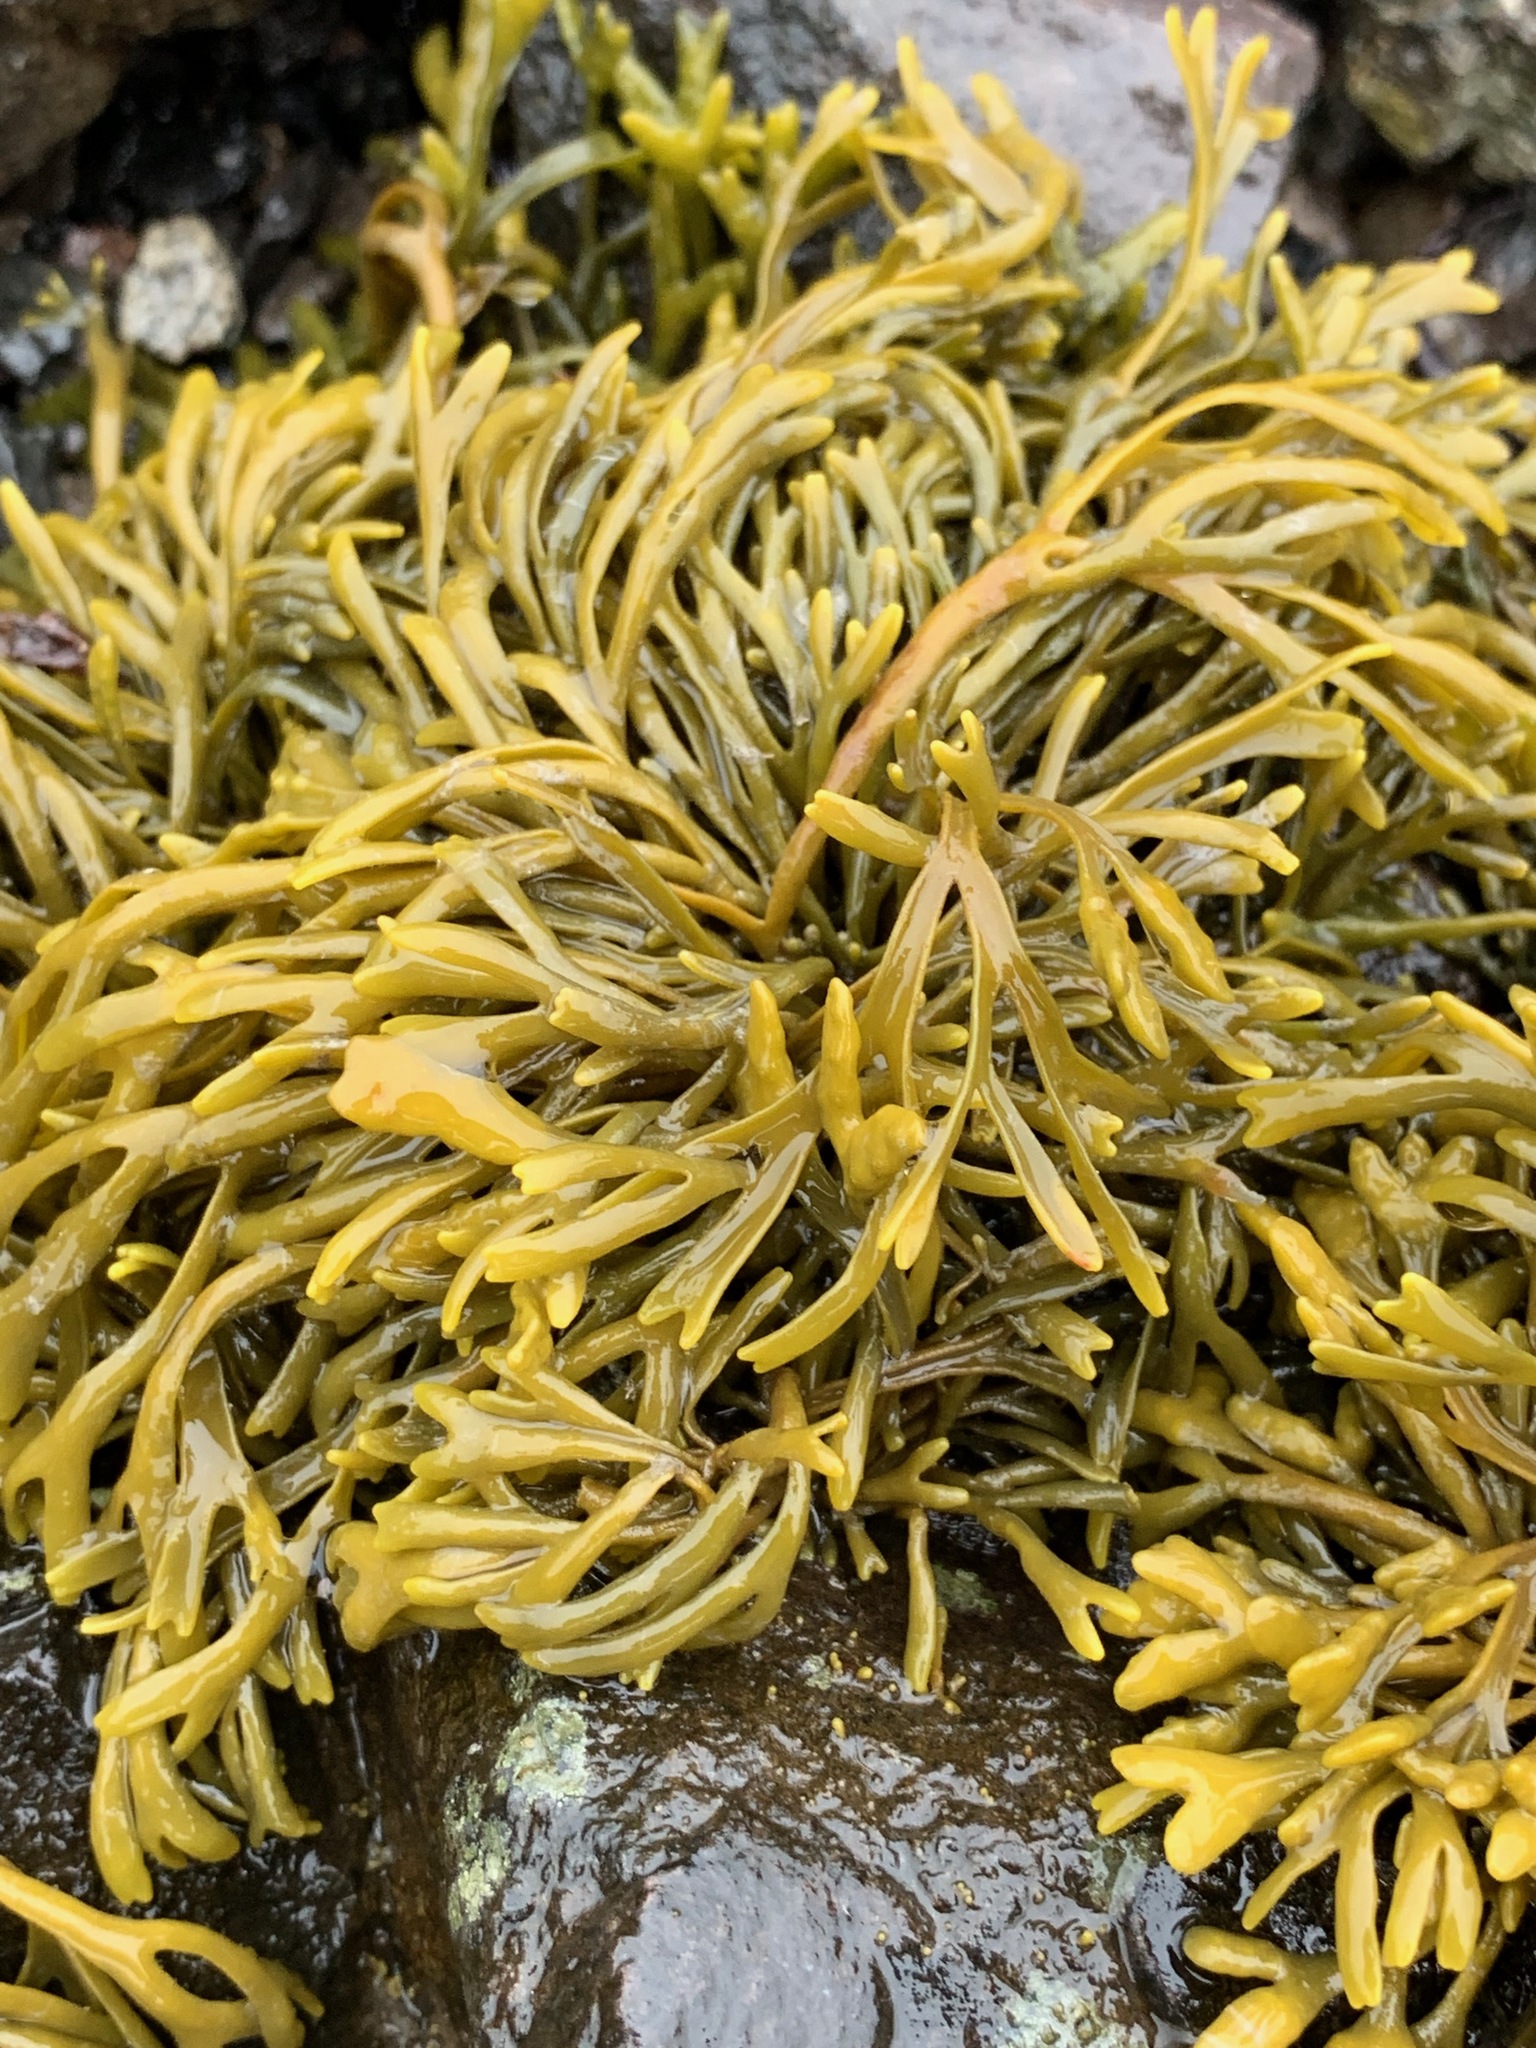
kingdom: Chromista
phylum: Ochrophyta
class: Phaeophyceae
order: Fucales
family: Fucaceae
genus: Pelvetia
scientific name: Pelvetia canaliculata
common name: Channelled wrack
